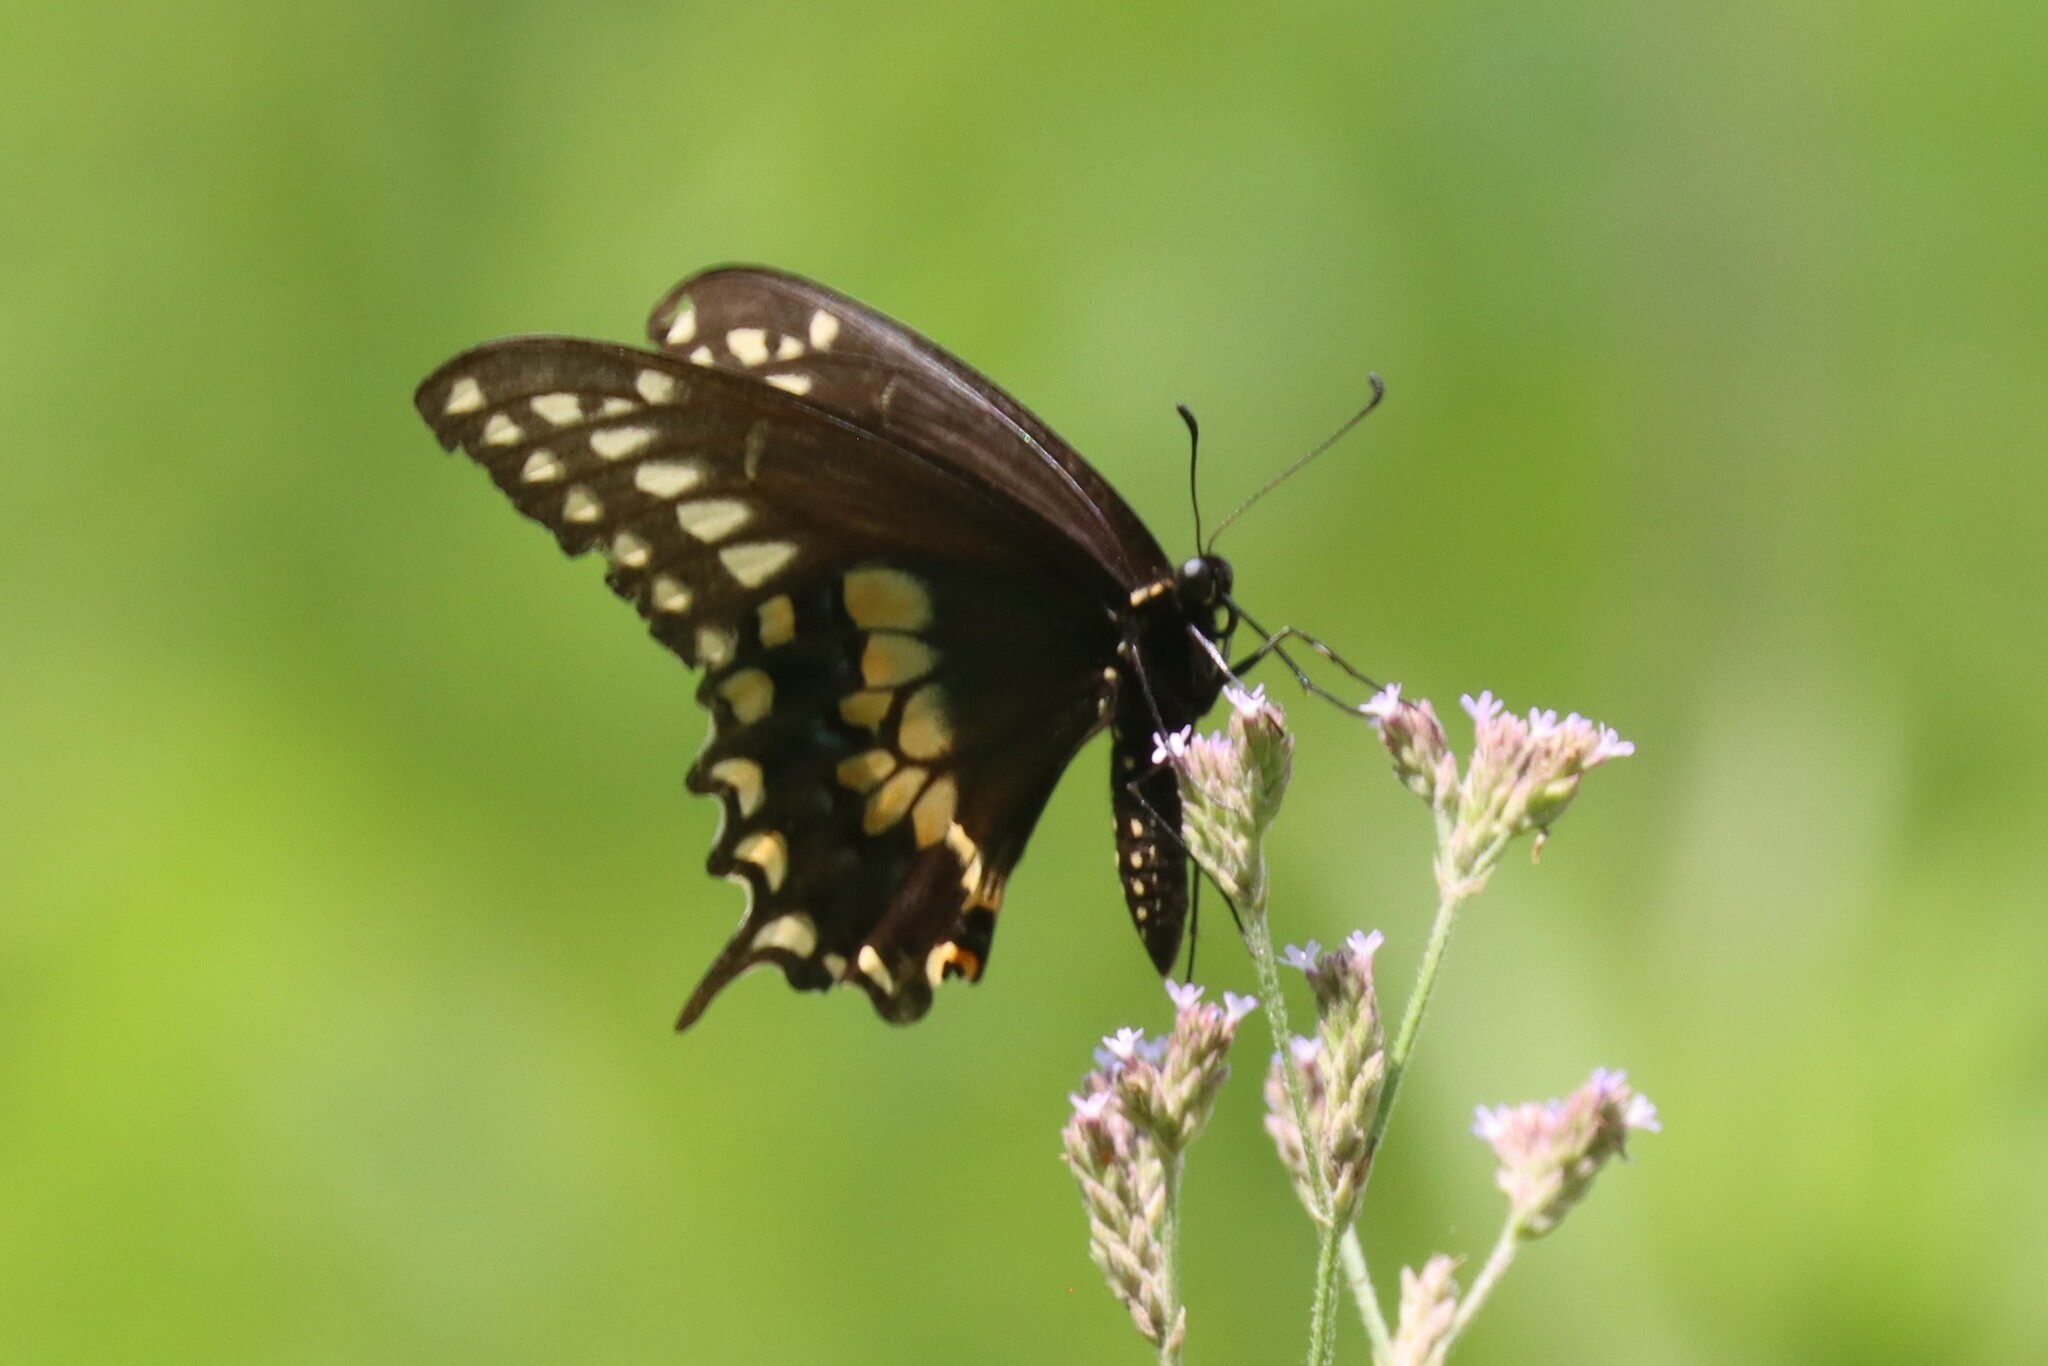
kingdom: Animalia
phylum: Arthropoda
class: Insecta
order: Lepidoptera
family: Papilionidae
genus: Papilio
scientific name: Papilio polyxenes
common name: Black swallowtail
